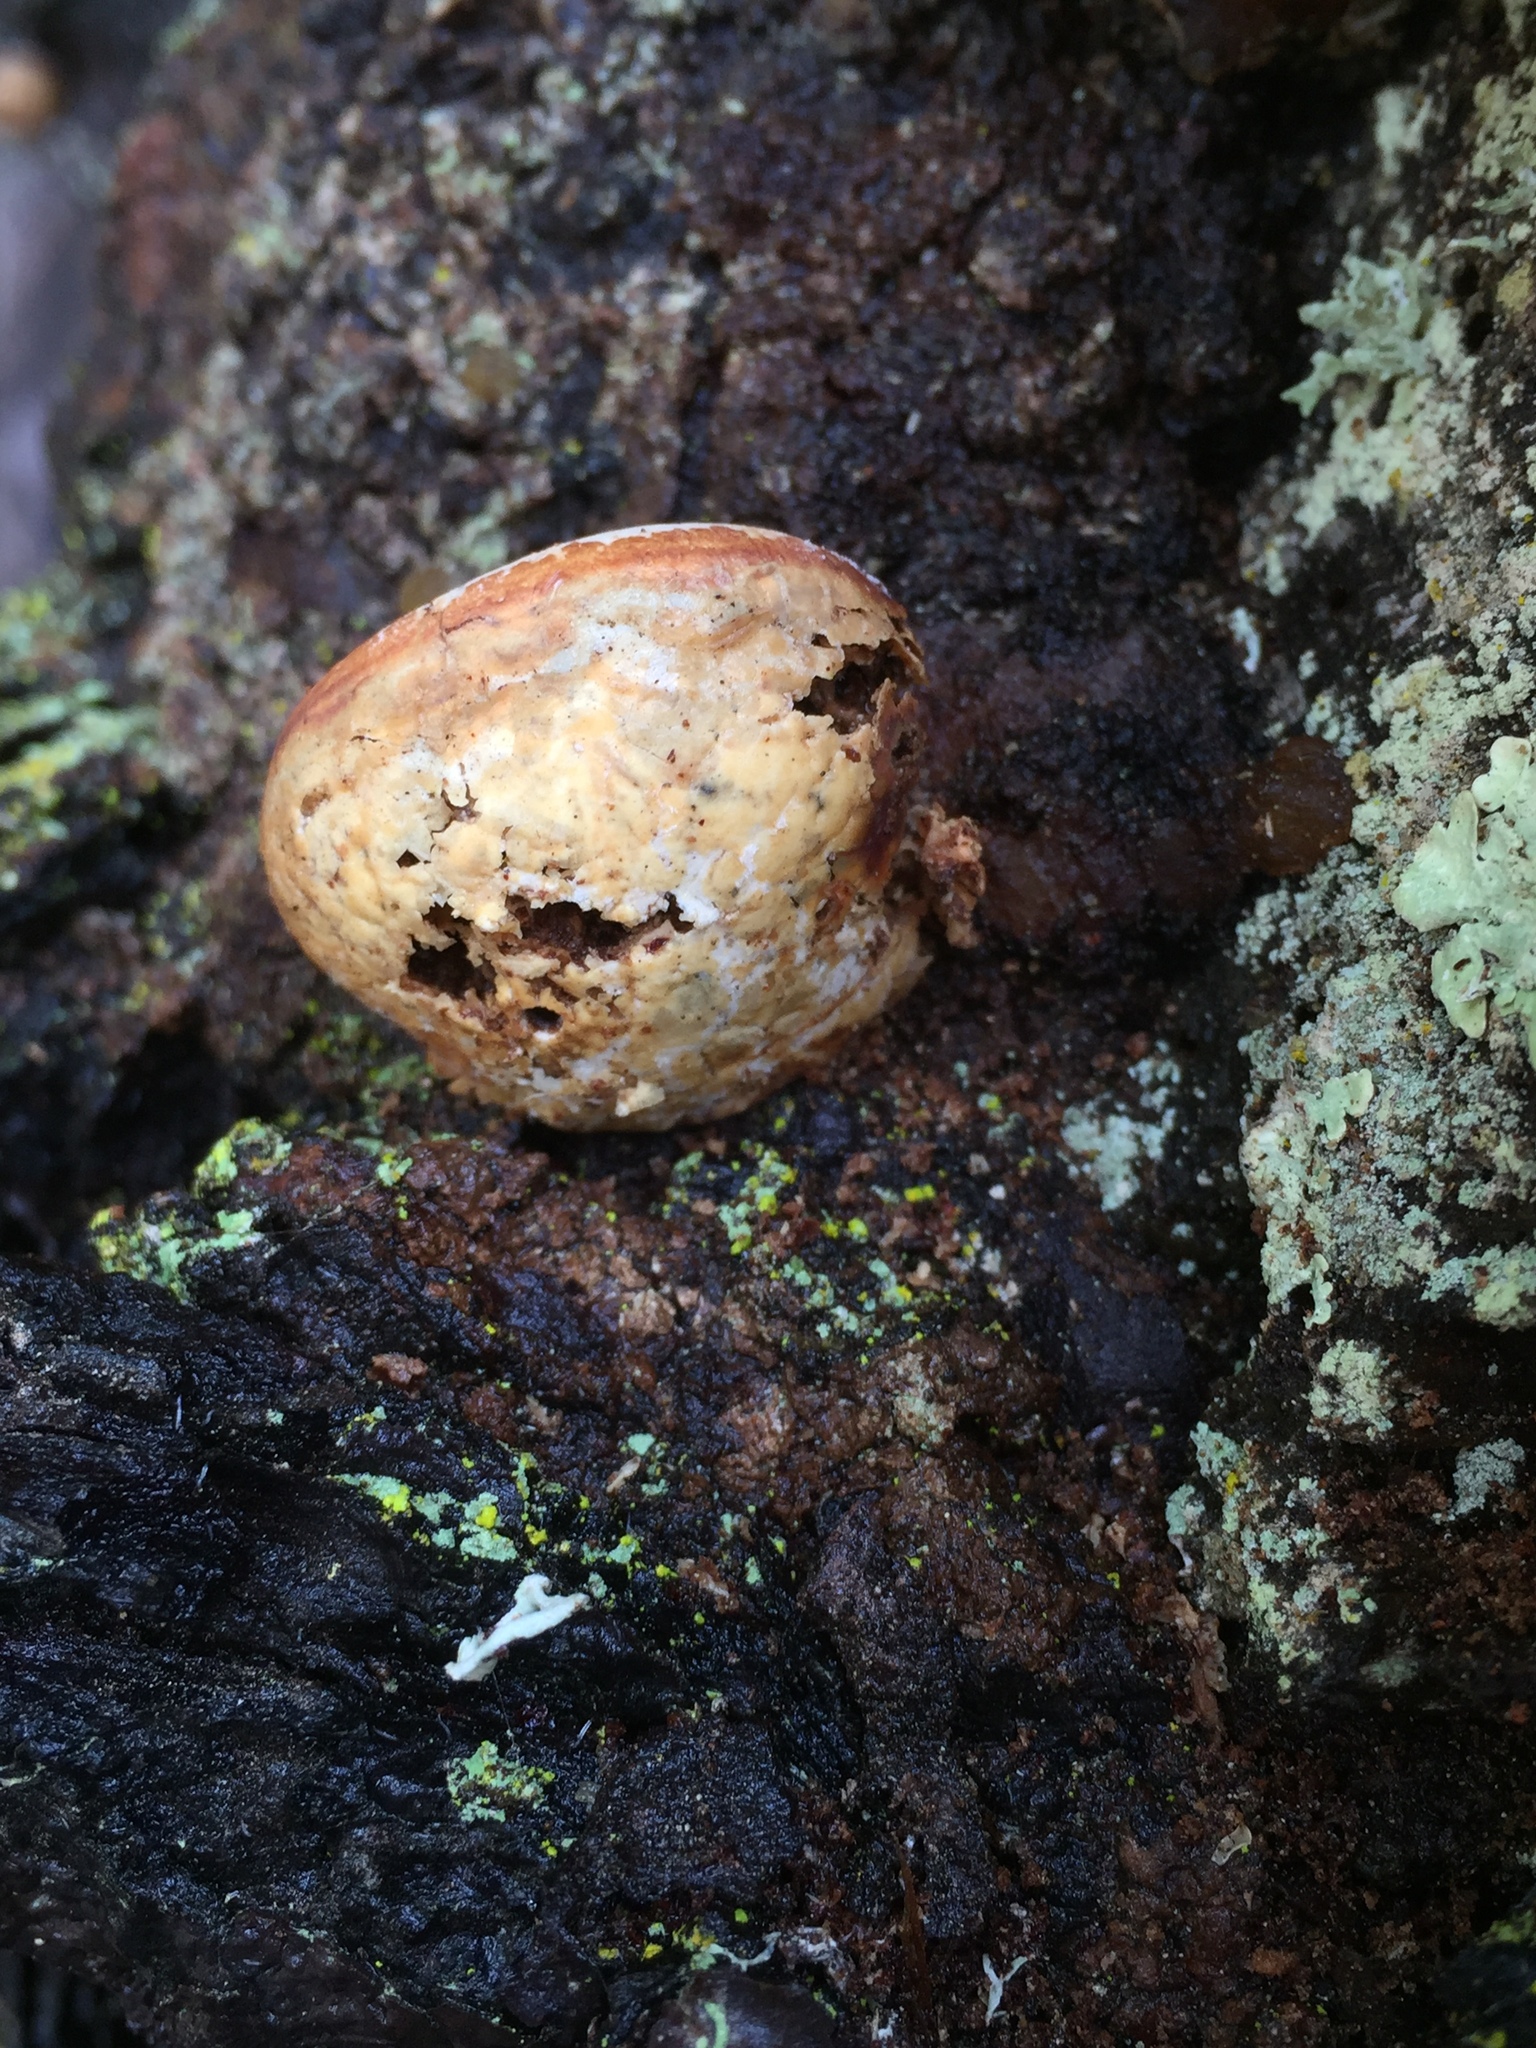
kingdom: Fungi
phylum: Basidiomycota
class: Agaricomycetes
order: Polyporales
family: Polyporaceae
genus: Cryptoporus
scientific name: Cryptoporus volvatus
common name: Veiled polypore
